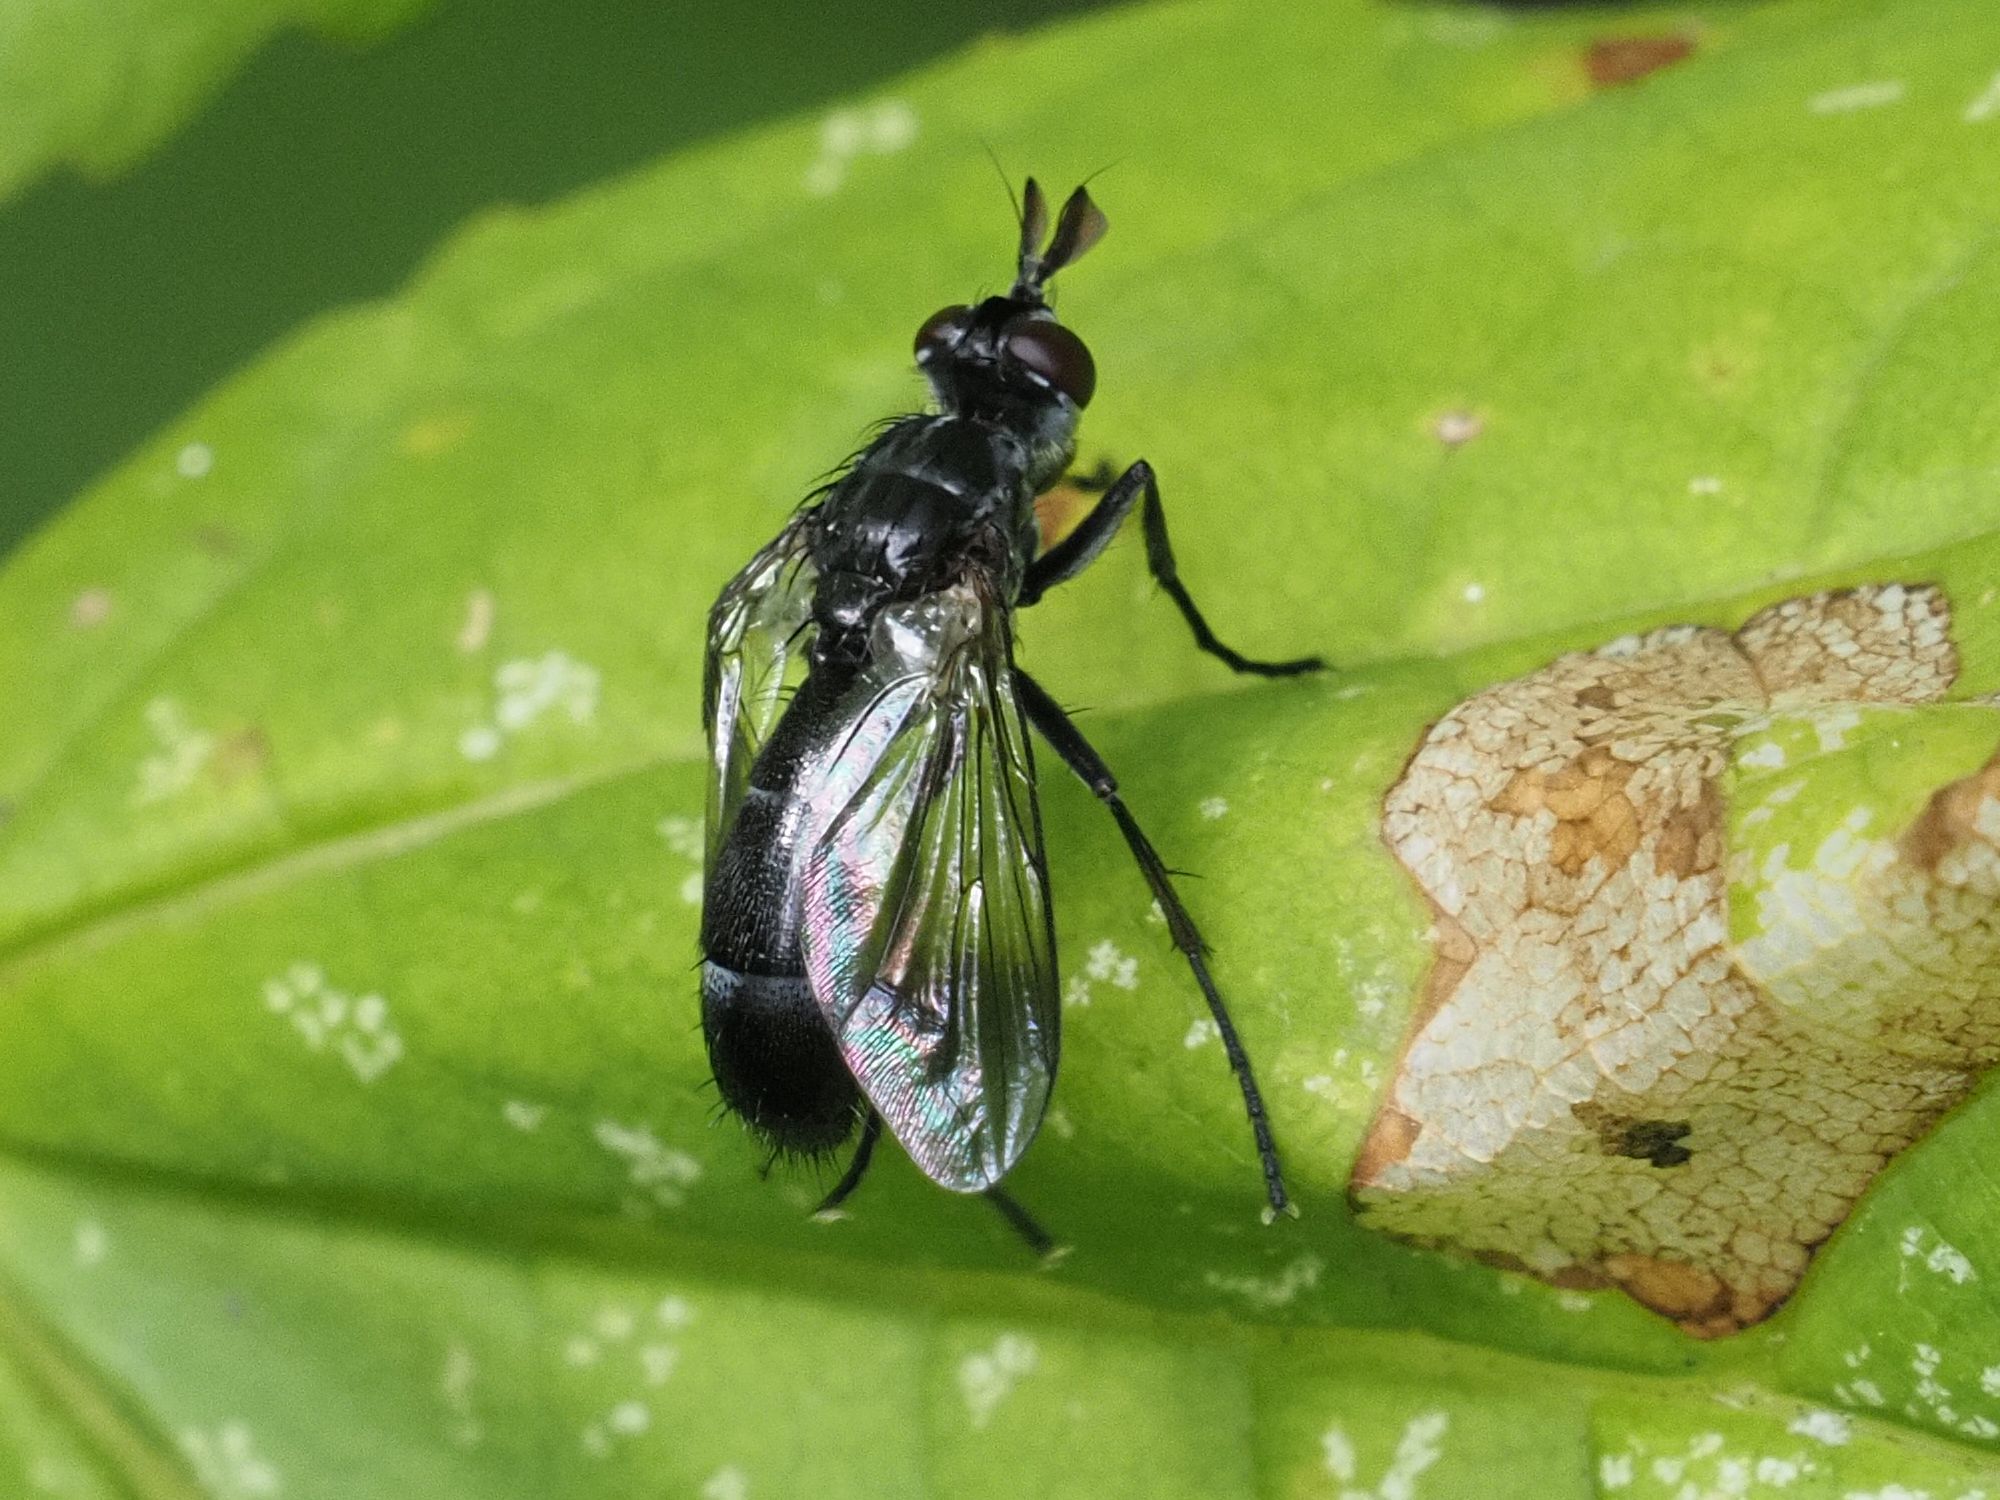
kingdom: Animalia
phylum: Arthropoda
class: Insecta
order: Diptera
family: Tachinidae
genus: Lophosia
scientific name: Lophosia fasciata
